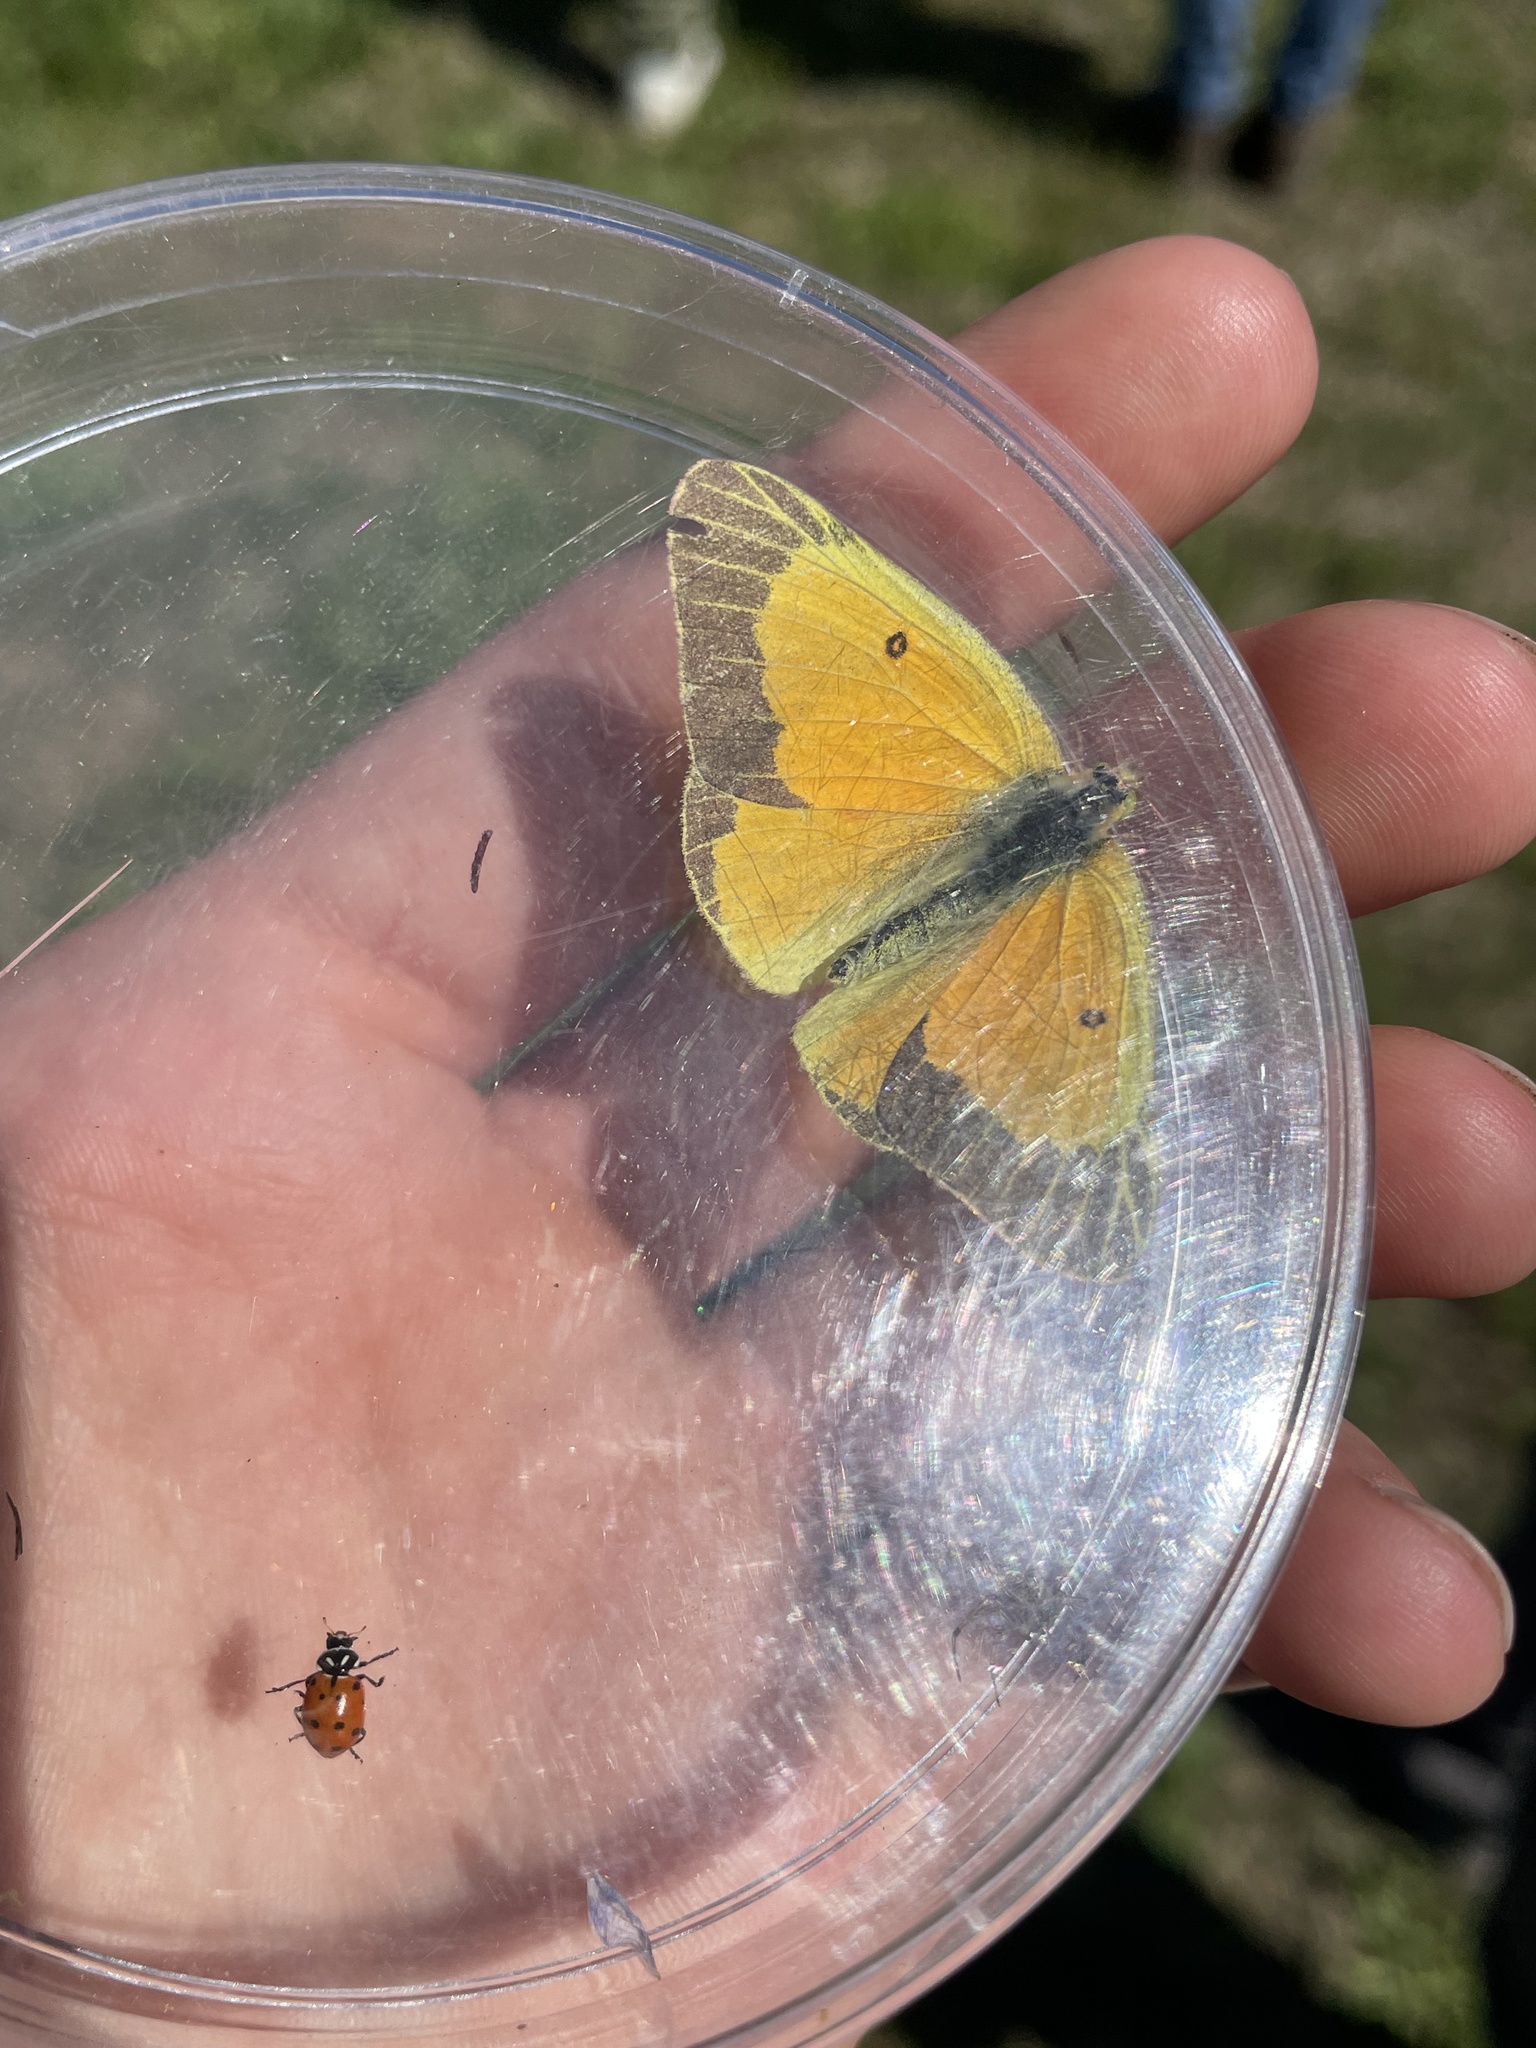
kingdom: Animalia
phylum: Arthropoda
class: Insecta
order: Lepidoptera
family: Pieridae
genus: Colias
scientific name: Colias eurytheme
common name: Alfalfa butterfly
